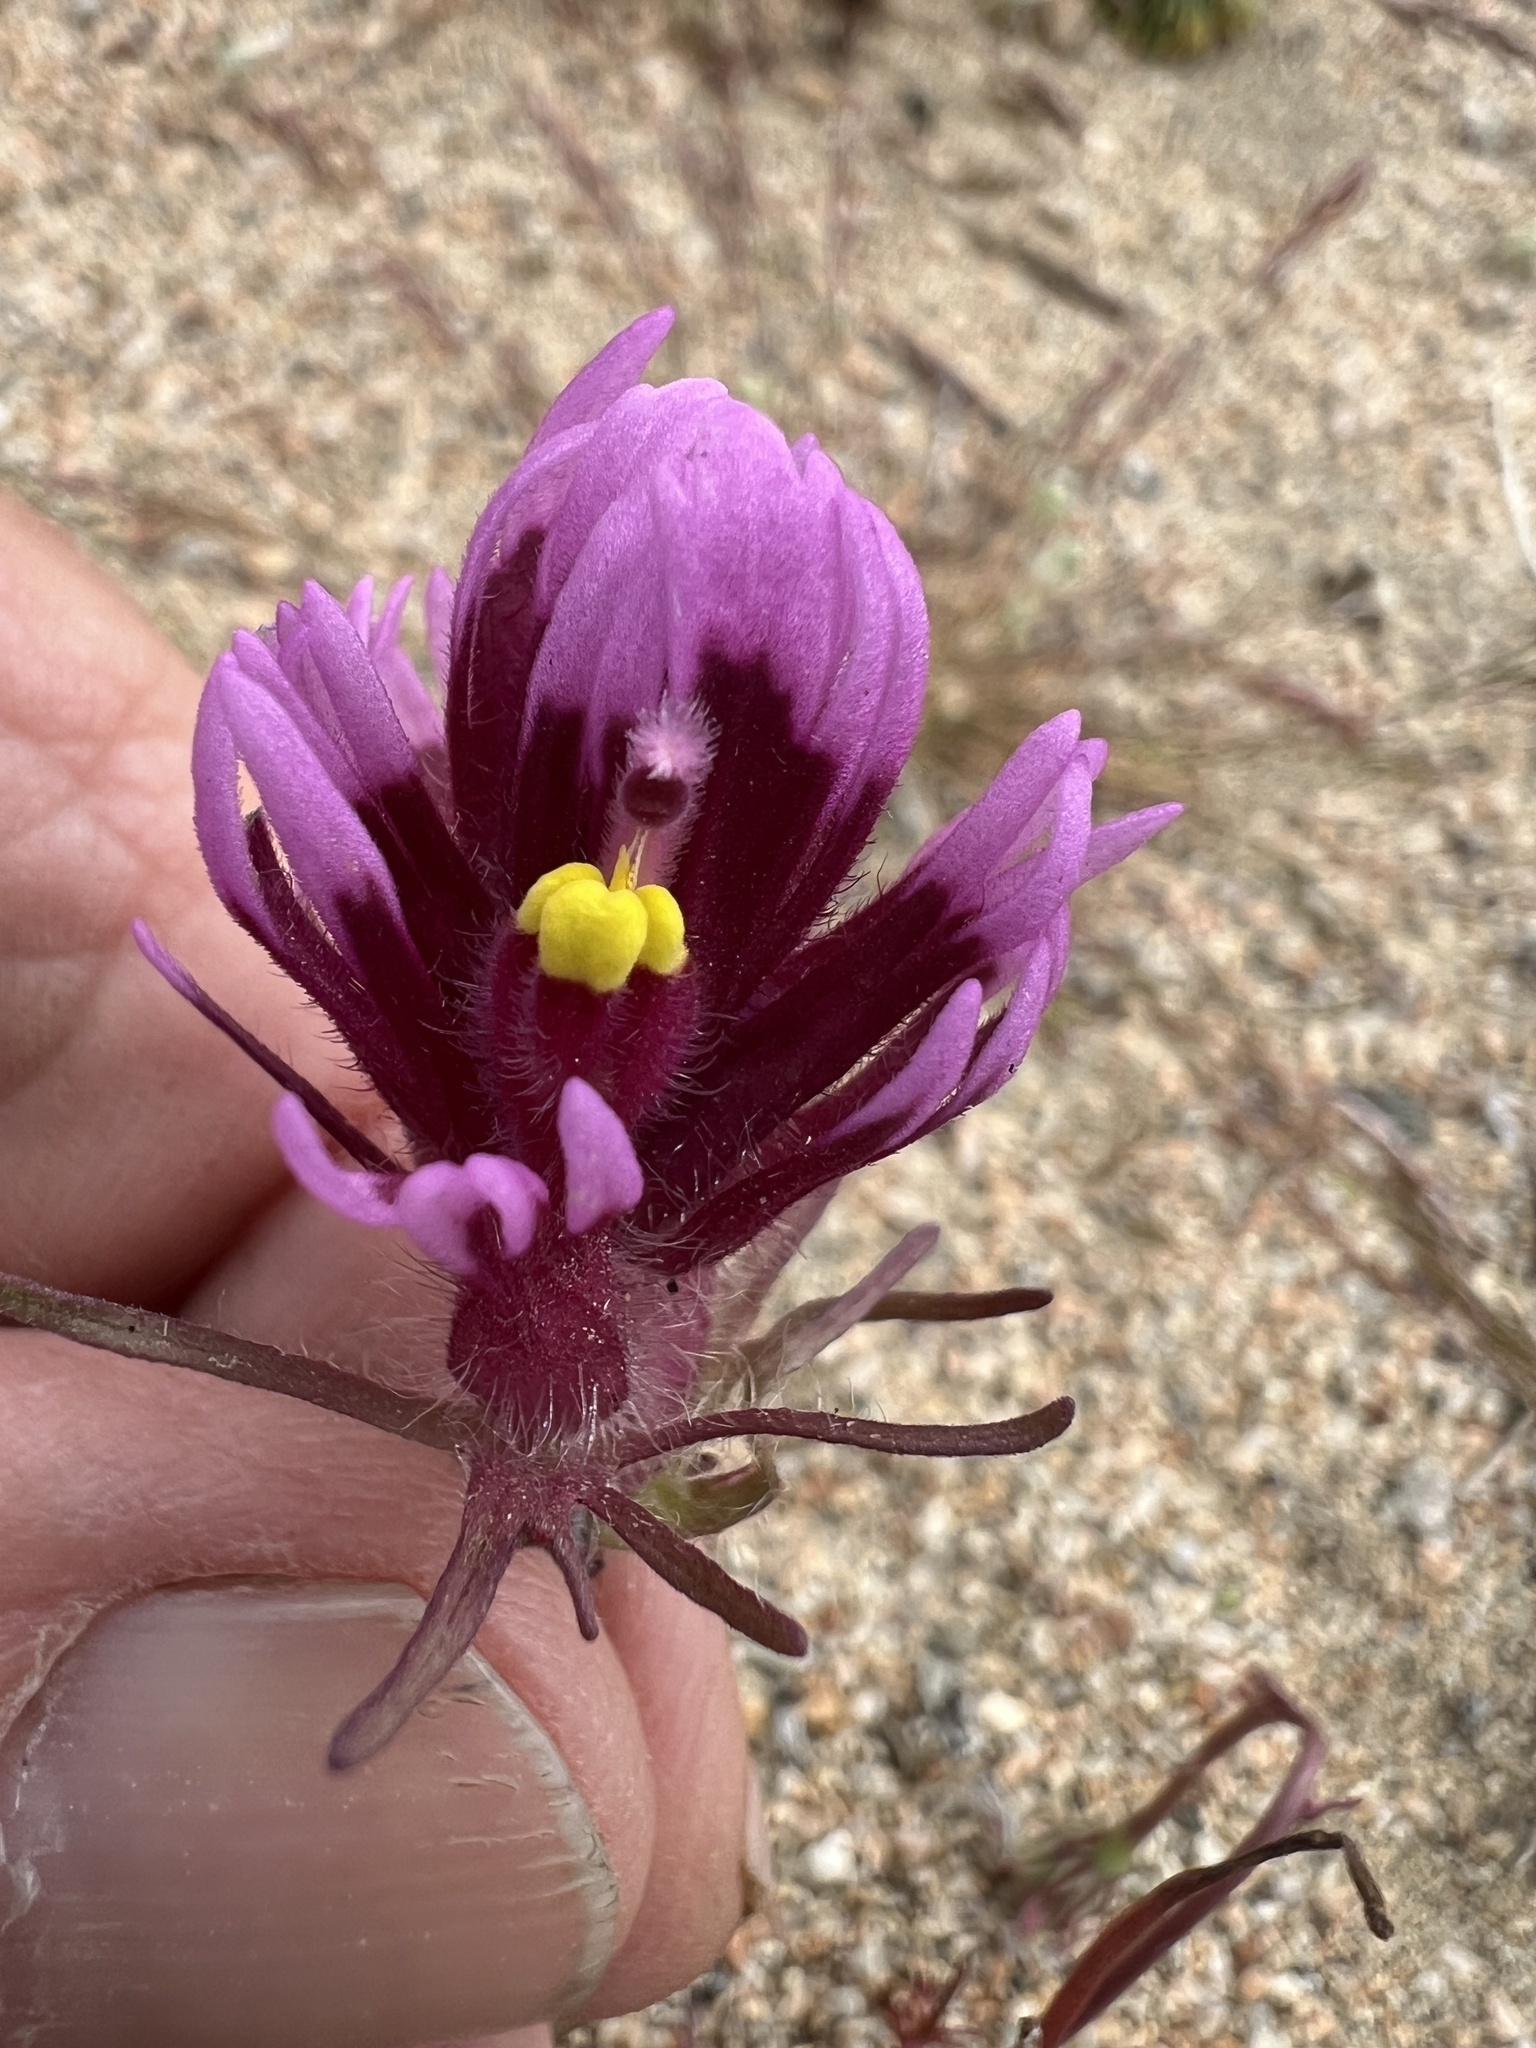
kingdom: Plantae
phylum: Tracheophyta
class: Magnoliopsida
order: Lamiales
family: Orobanchaceae
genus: Castilleja
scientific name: Castilleja exserta
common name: Purple owl-clover
